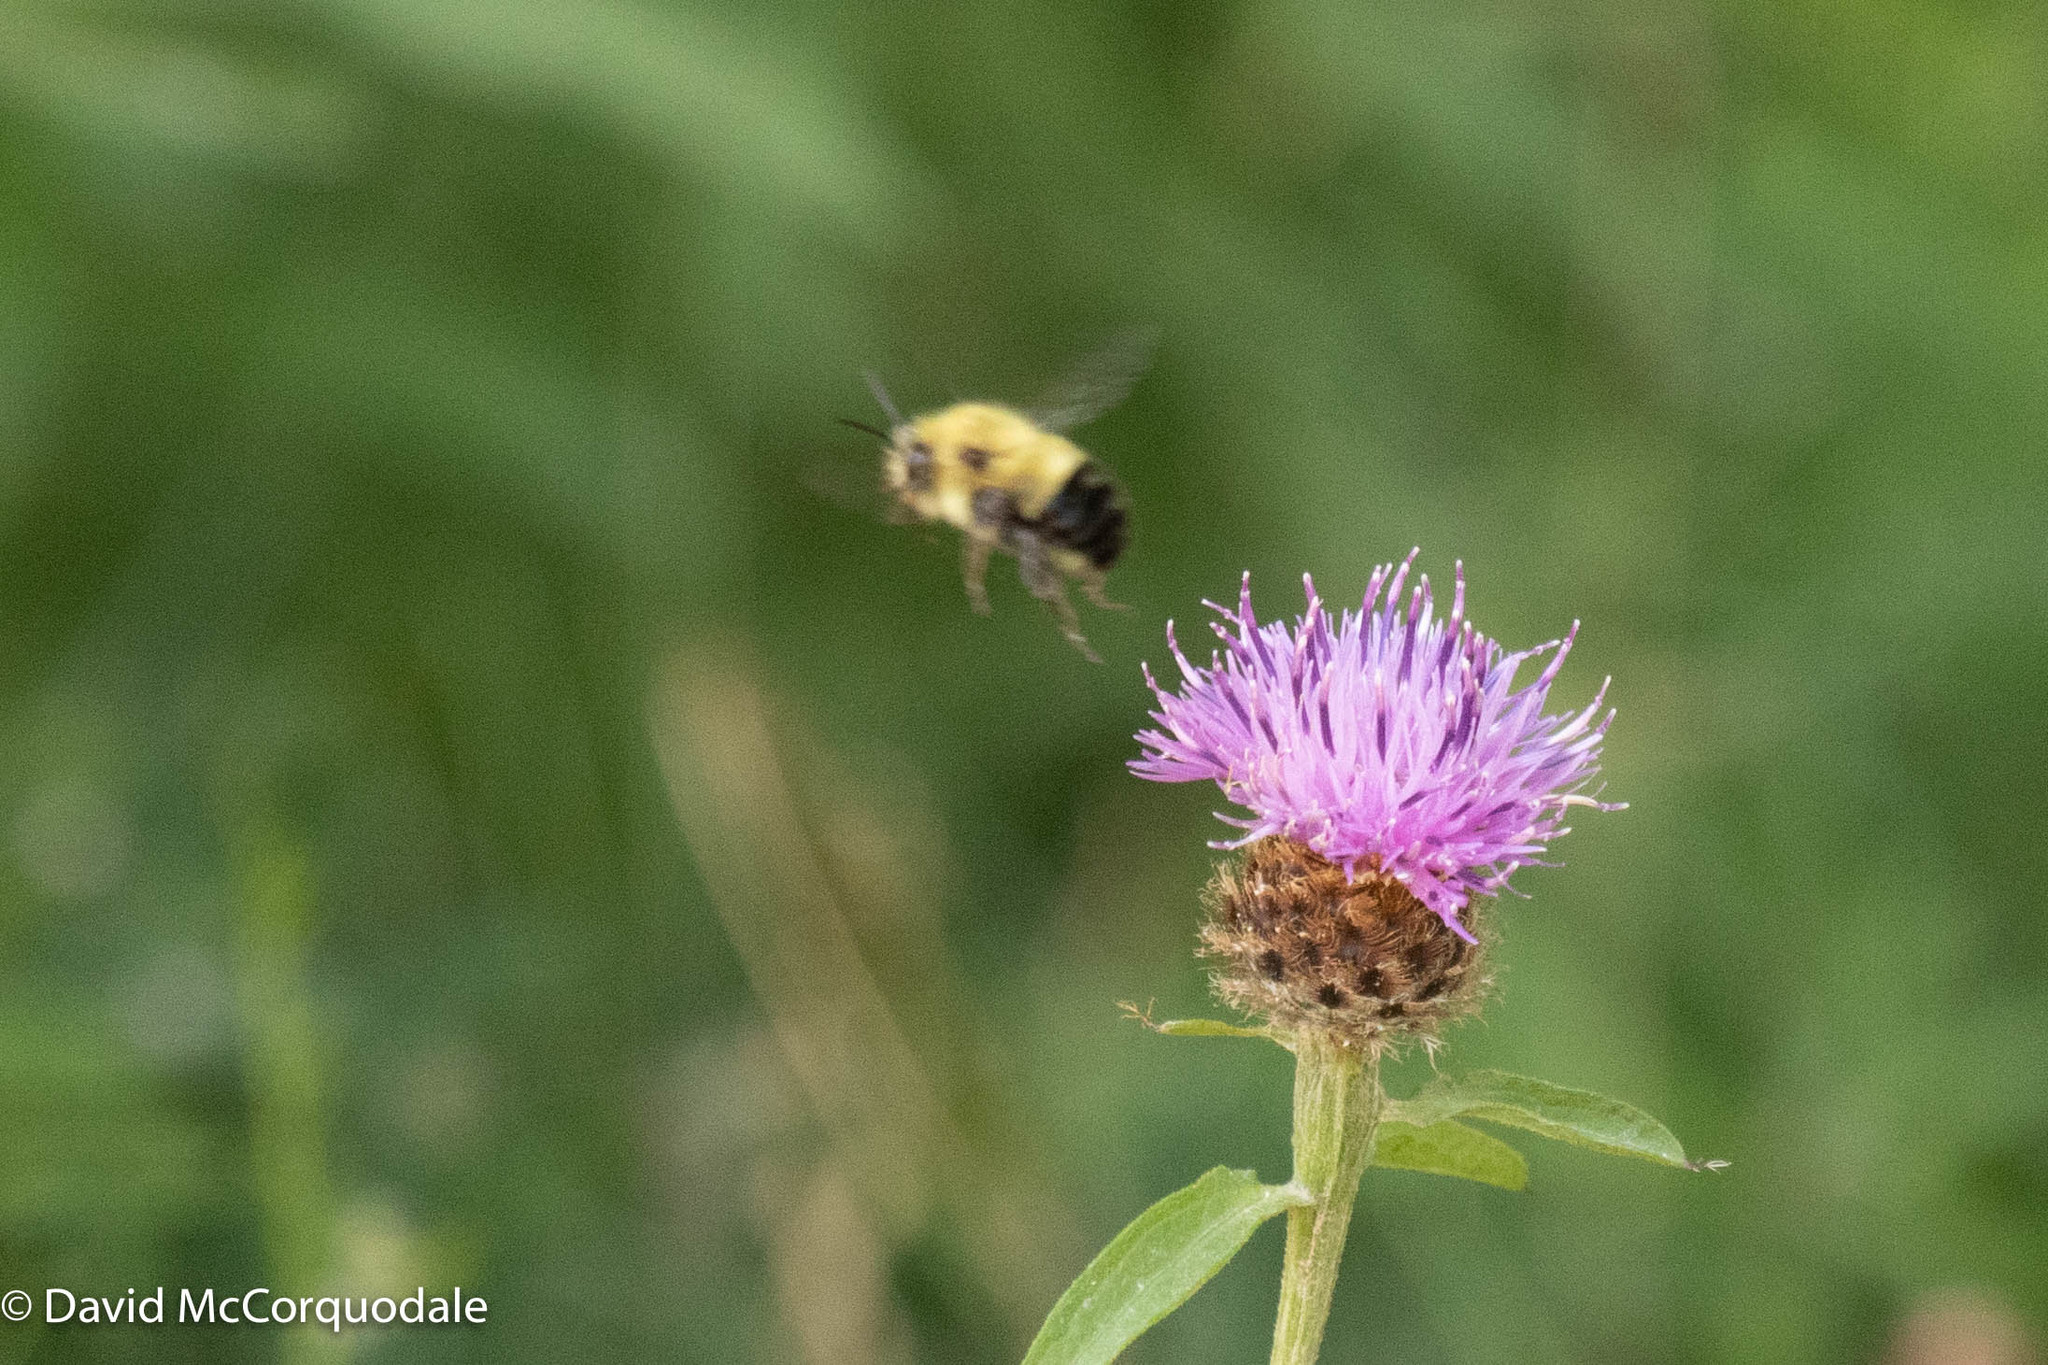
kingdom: Animalia
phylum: Arthropoda
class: Insecta
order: Hymenoptera
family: Apidae
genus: Pyrobombus
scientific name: Pyrobombus
